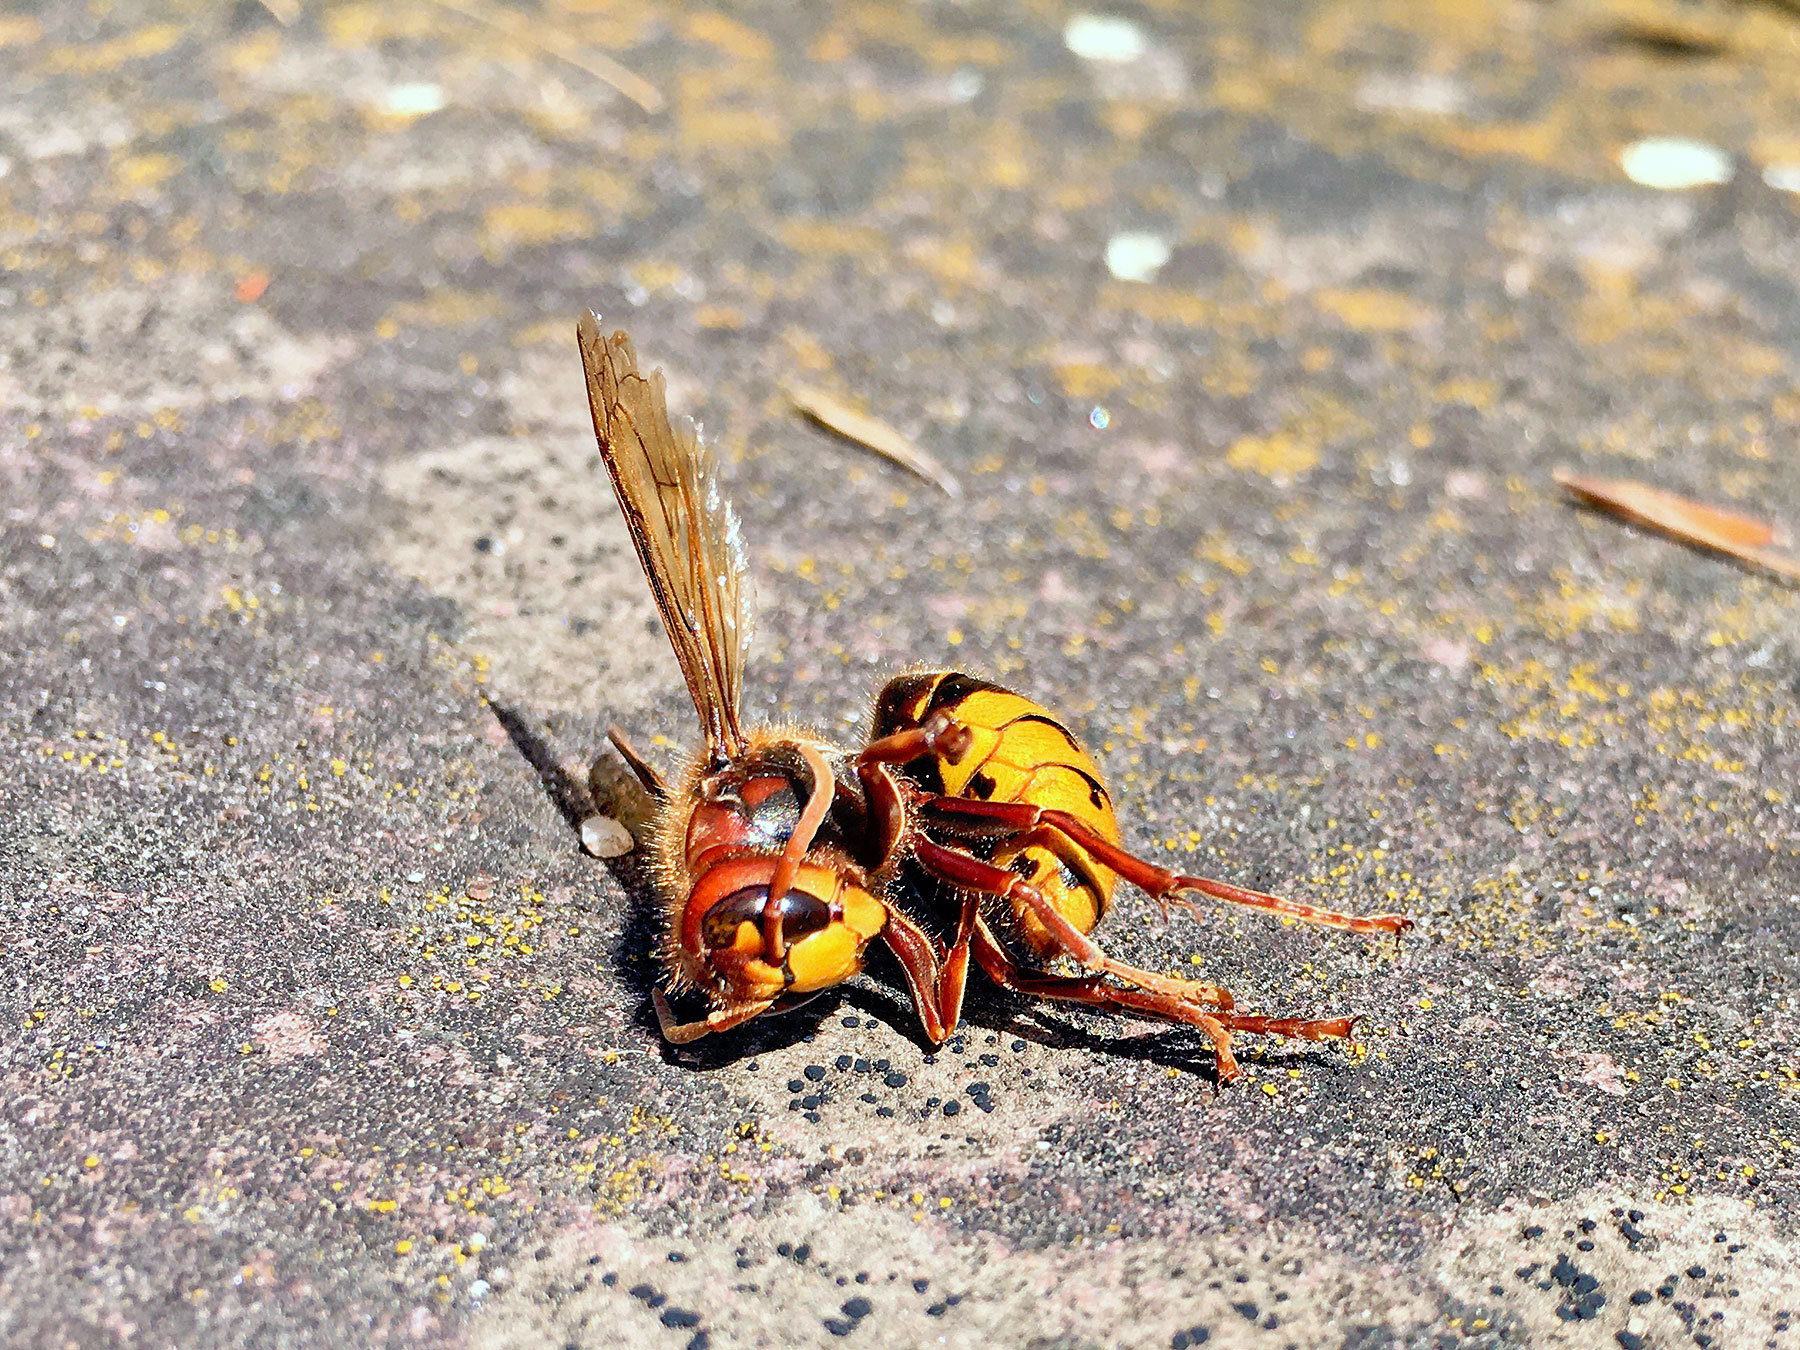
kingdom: Animalia
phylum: Arthropoda
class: Insecta
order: Hymenoptera
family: Vespidae
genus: Vespa
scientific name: Vespa crabro
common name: Hornet
